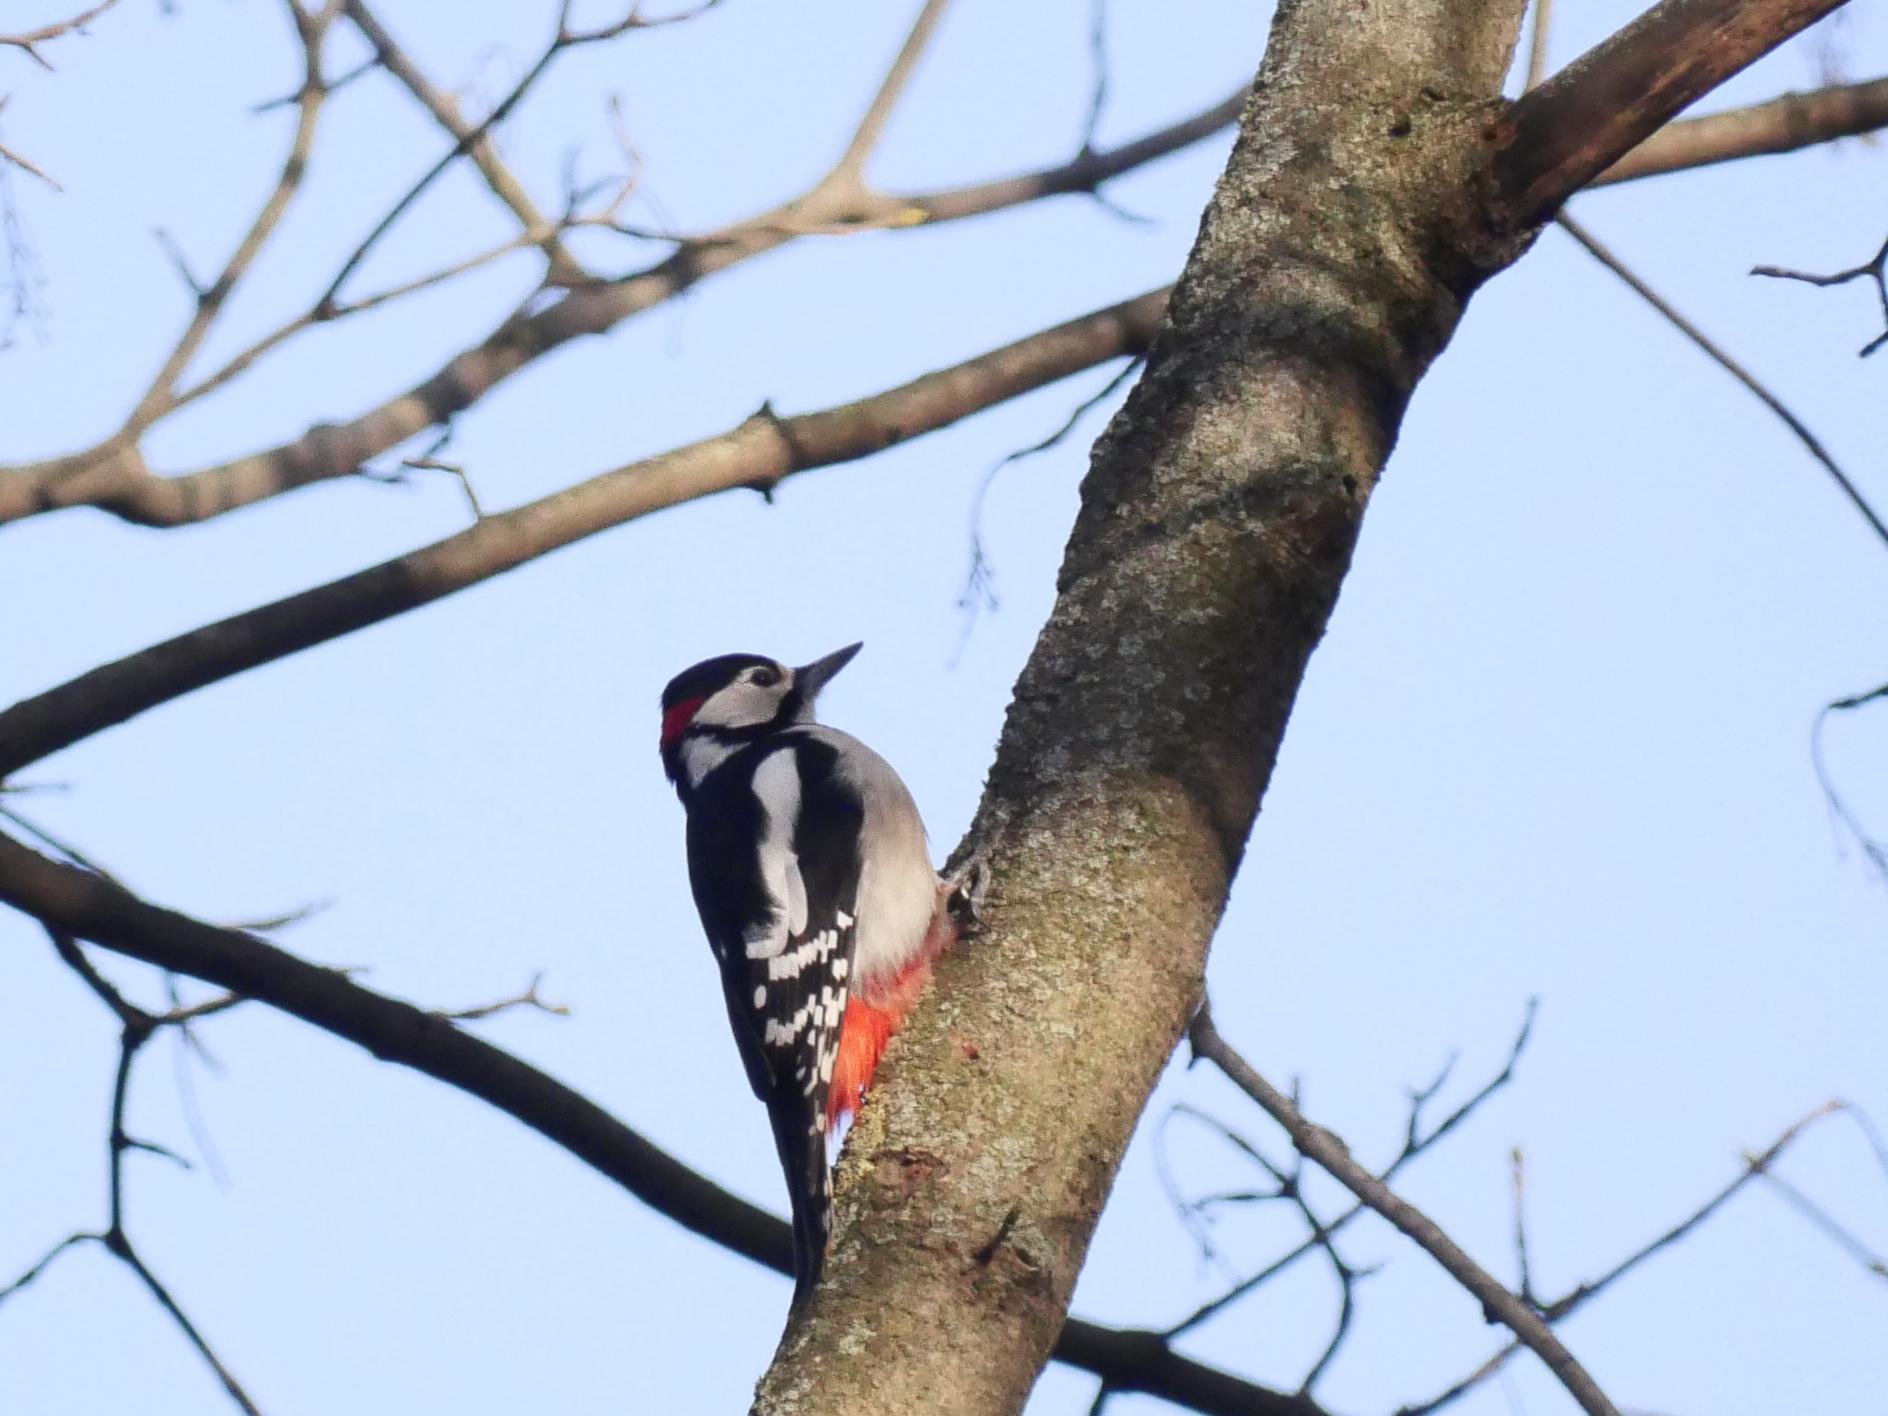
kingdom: Animalia
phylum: Chordata
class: Aves
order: Piciformes
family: Picidae
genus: Dendrocopos
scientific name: Dendrocopos major
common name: Great spotted woodpecker
